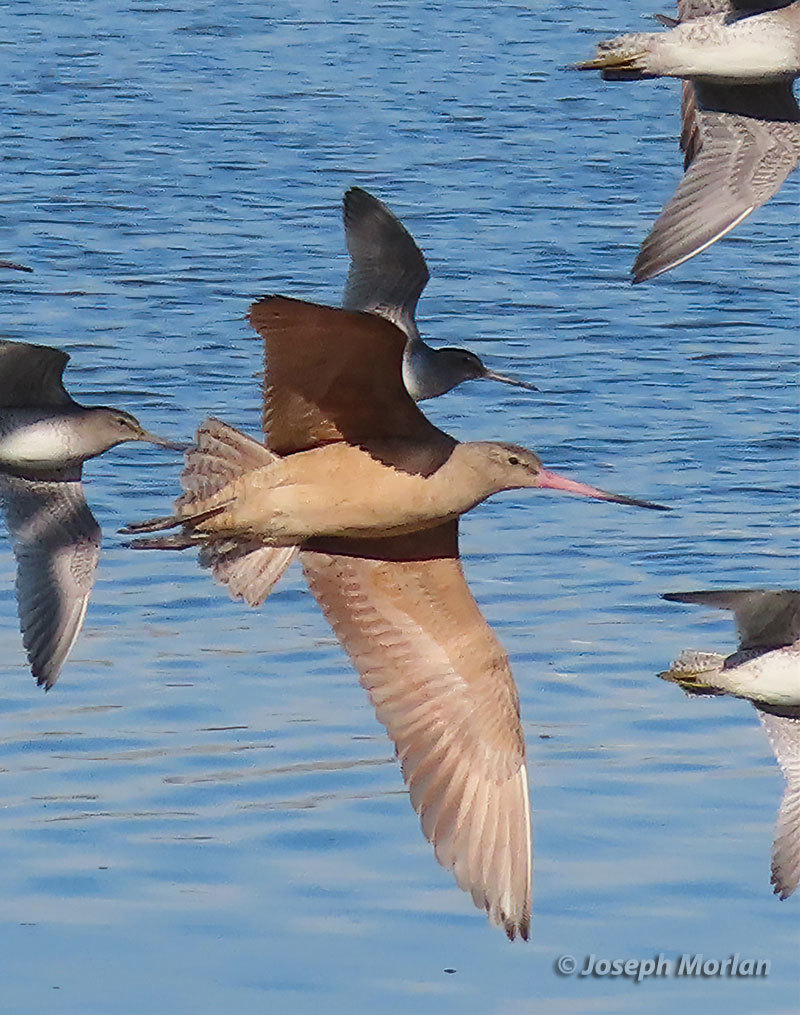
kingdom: Animalia
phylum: Chordata
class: Aves
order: Charadriiformes
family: Scolopacidae
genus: Limosa
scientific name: Limosa fedoa
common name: Marbled godwit
